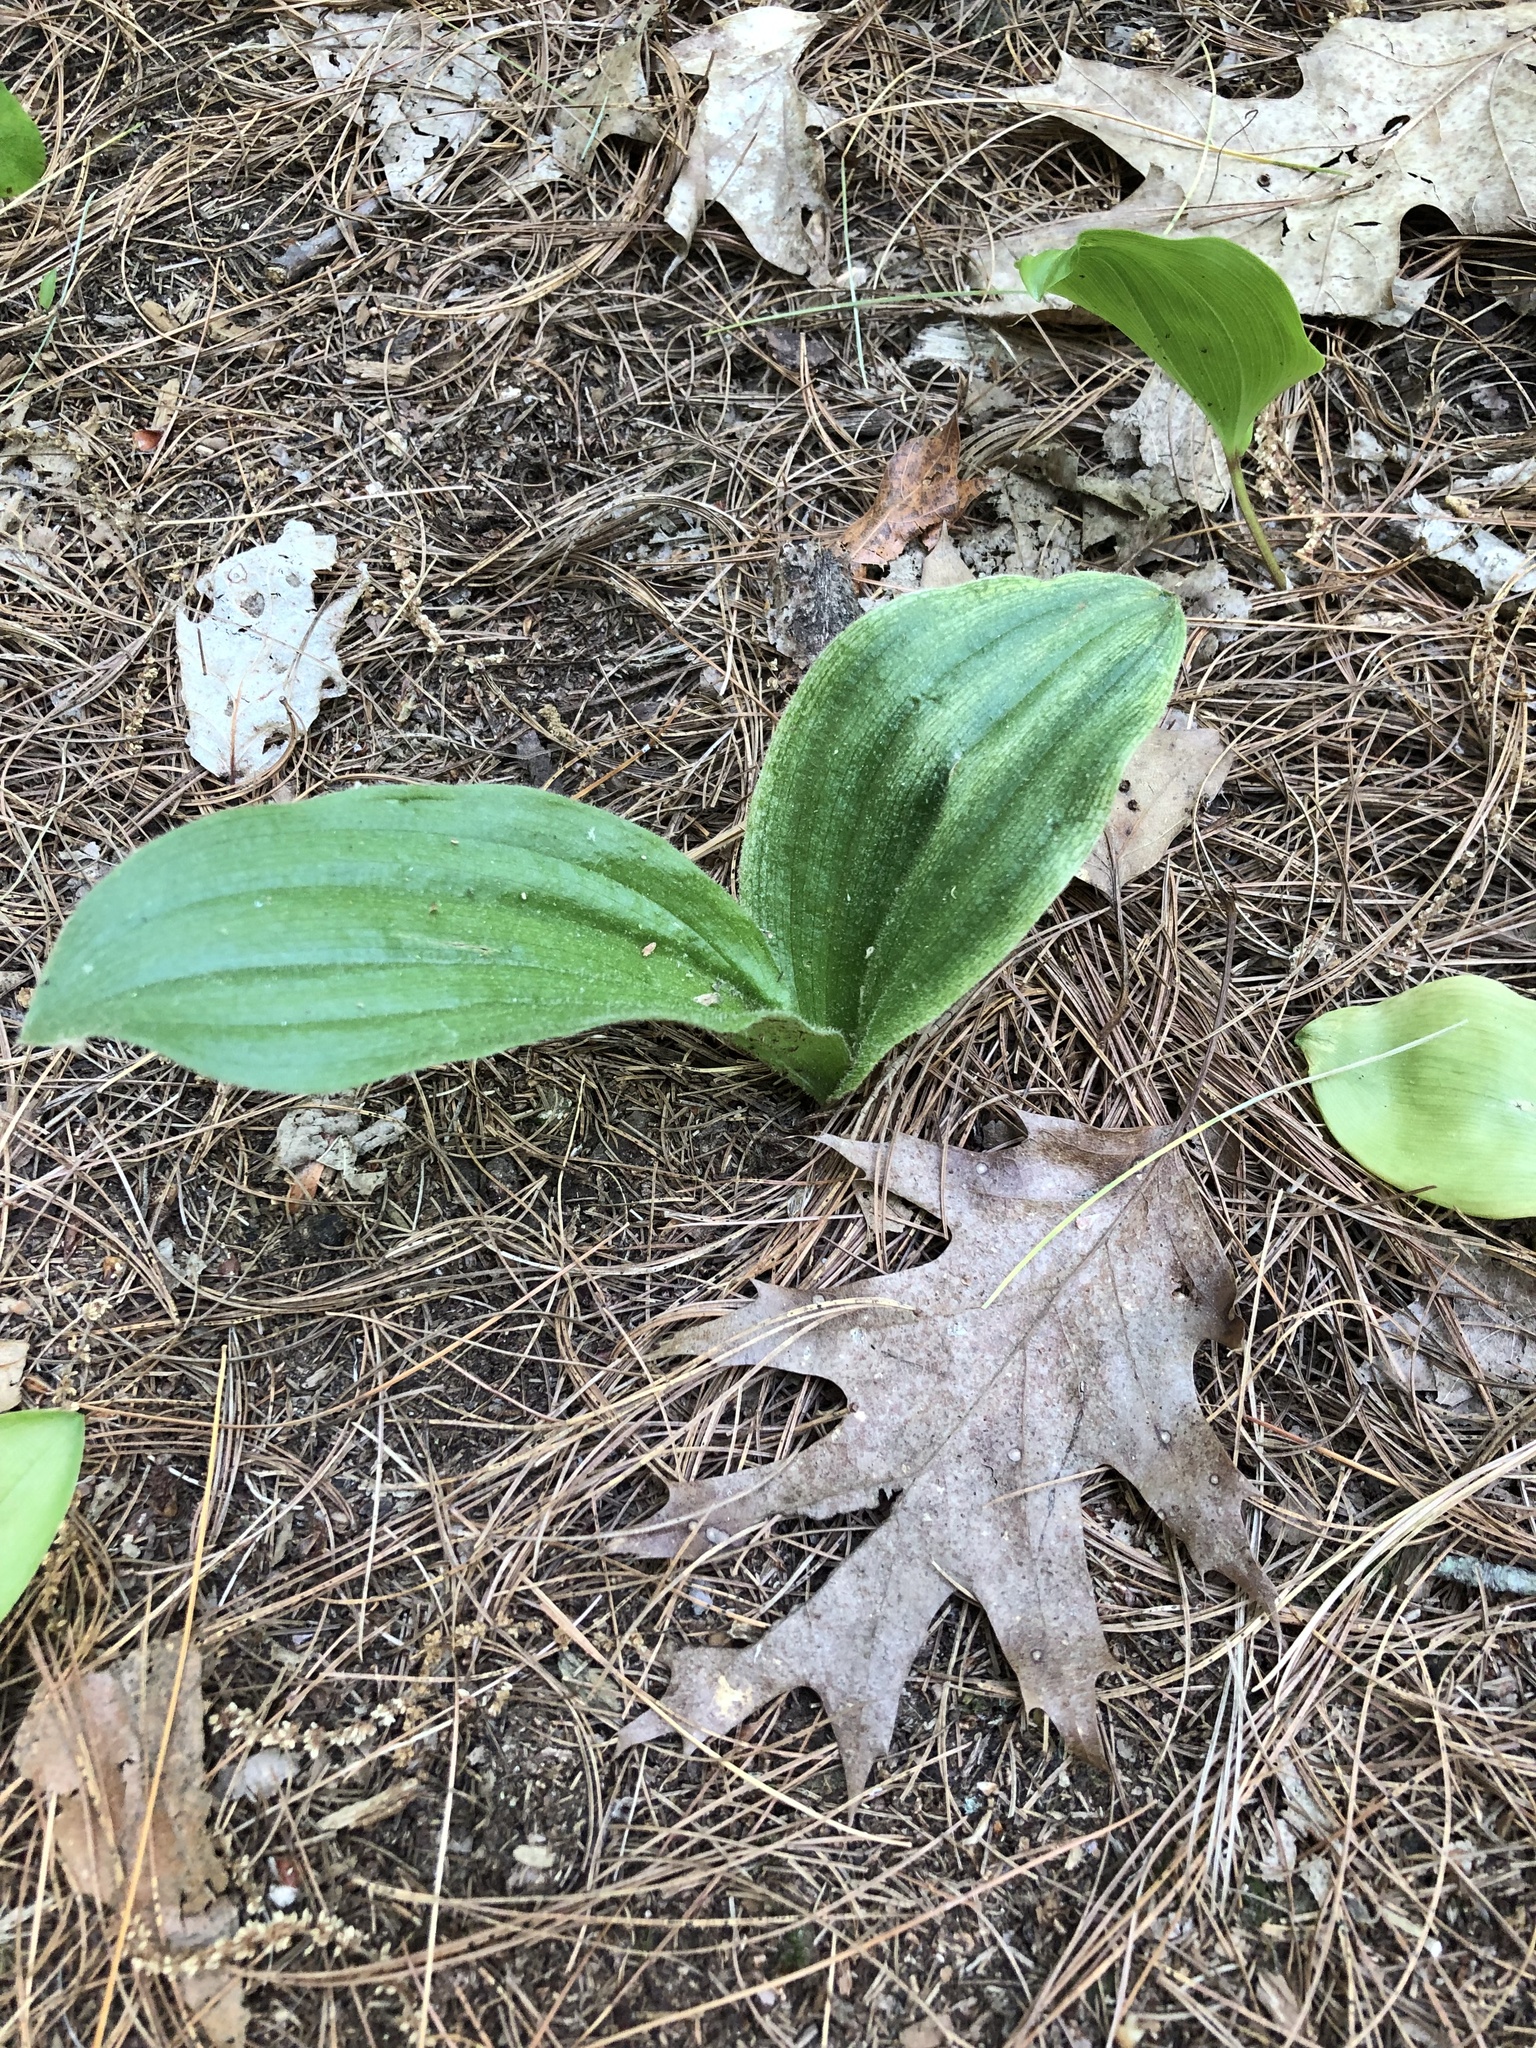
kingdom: Plantae
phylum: Tracheophyta
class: Liliopsida
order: Asparagales
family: Orchidaceae
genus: Cypripedium
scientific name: Cypripedium acaule
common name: Pink lady's-slipper
